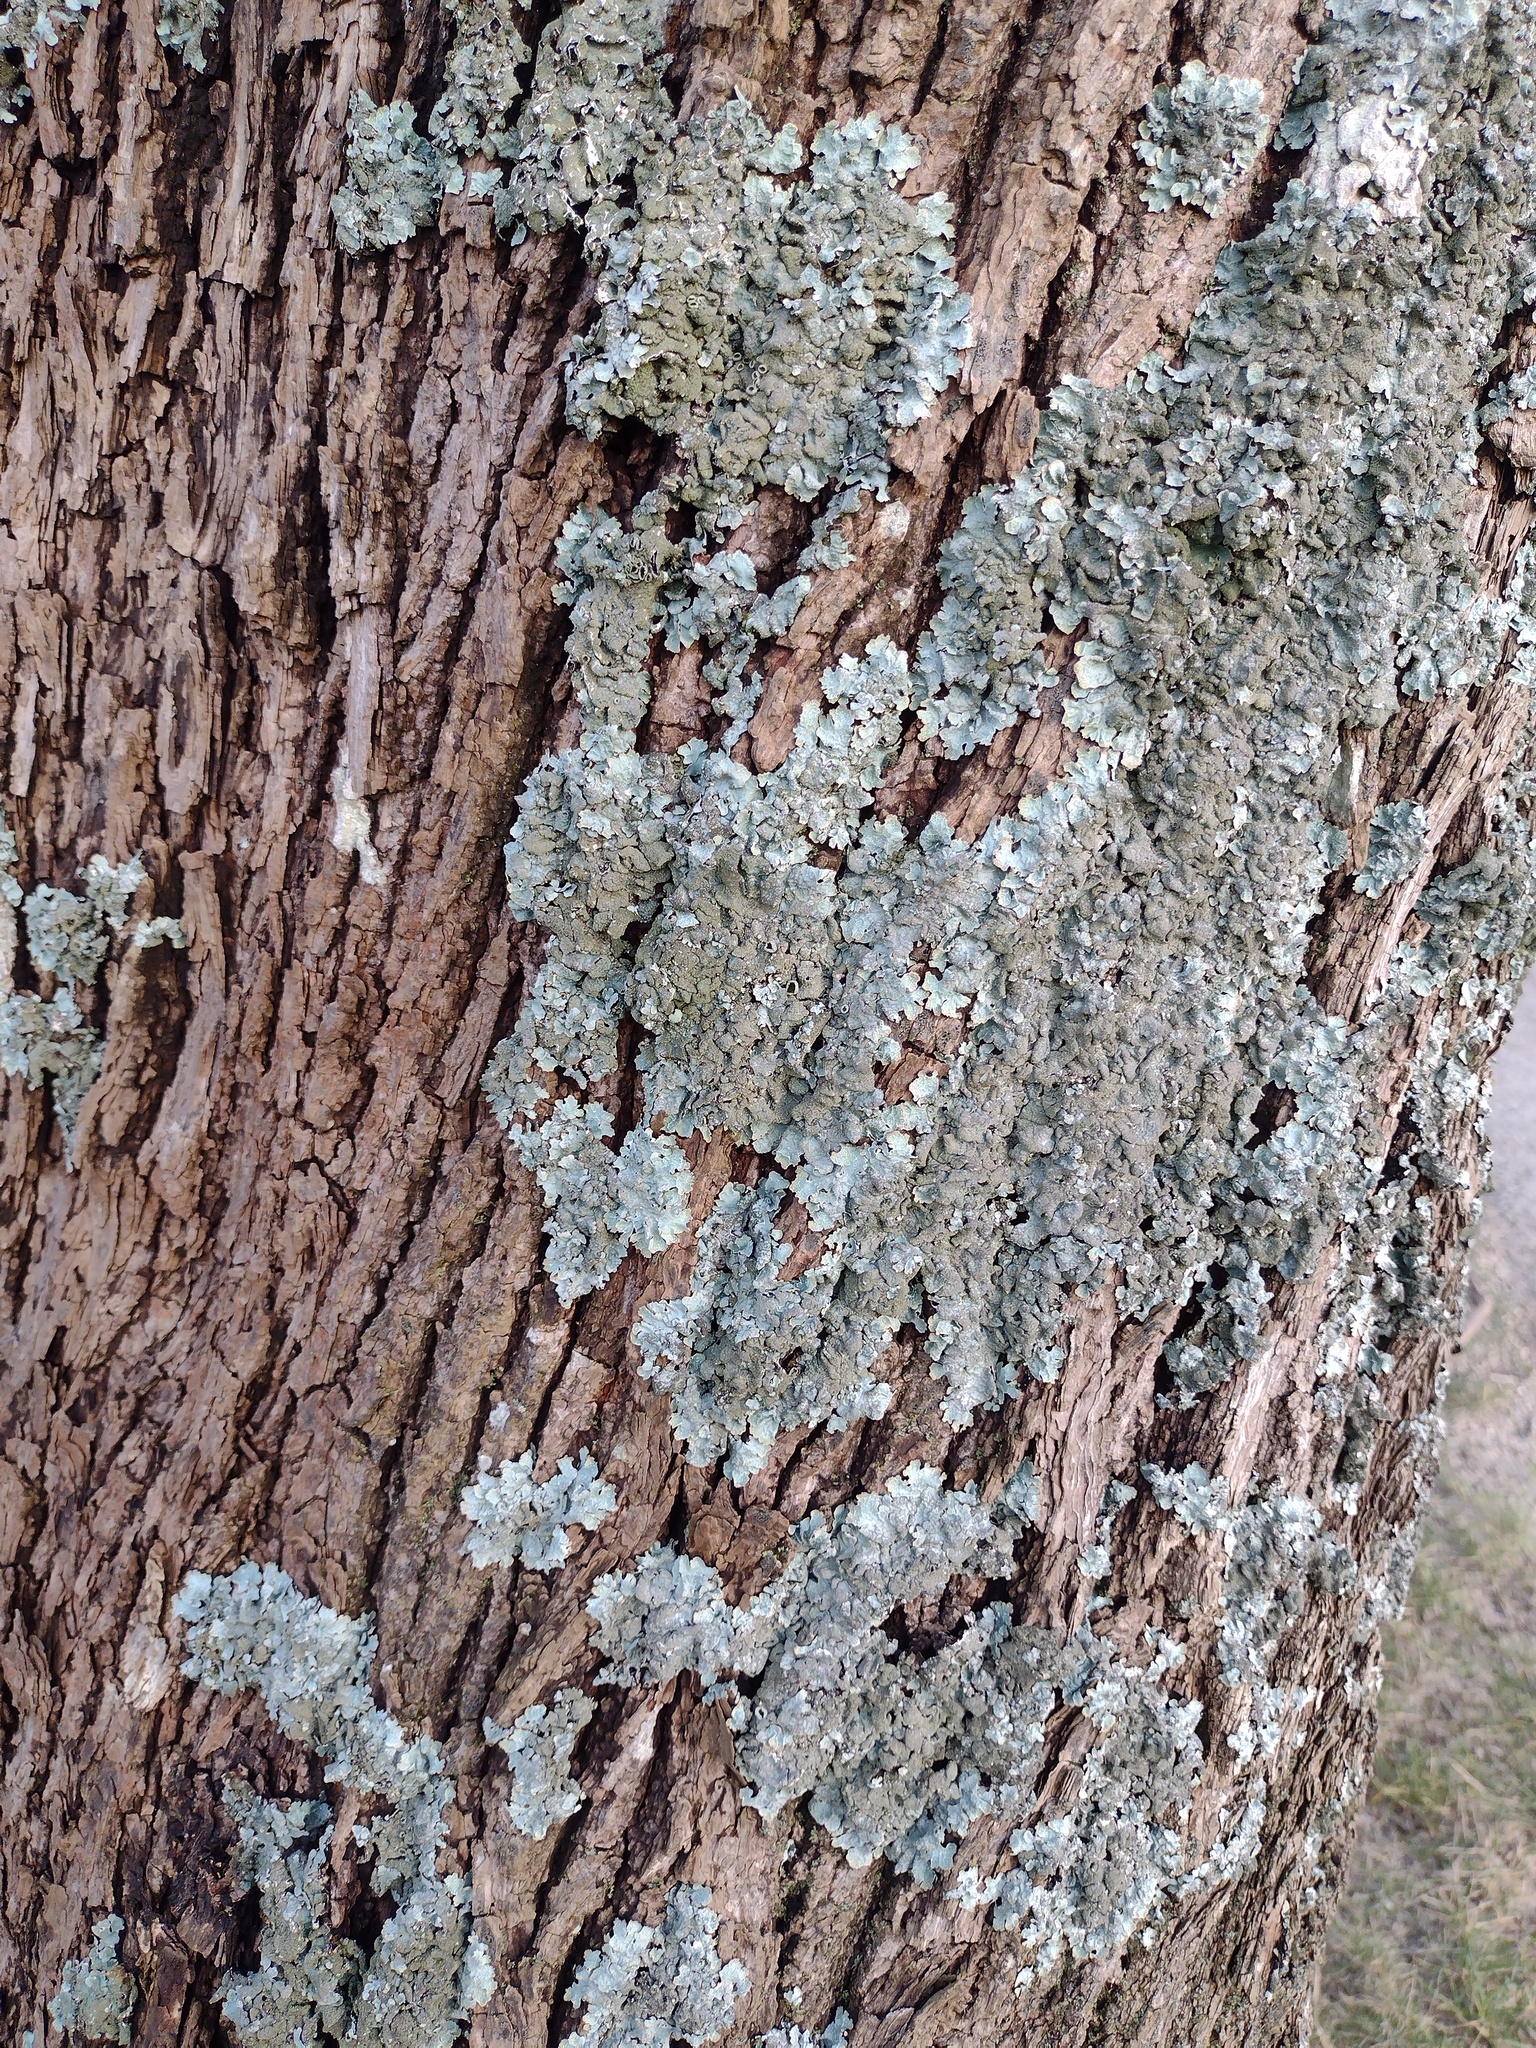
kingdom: Fungi
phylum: Ascomycota
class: Lecanoromycetes
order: Lecanorales
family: Parmeliaceae
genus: Parmelia
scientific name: Parmelia sulcata
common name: Netted shield lichen
